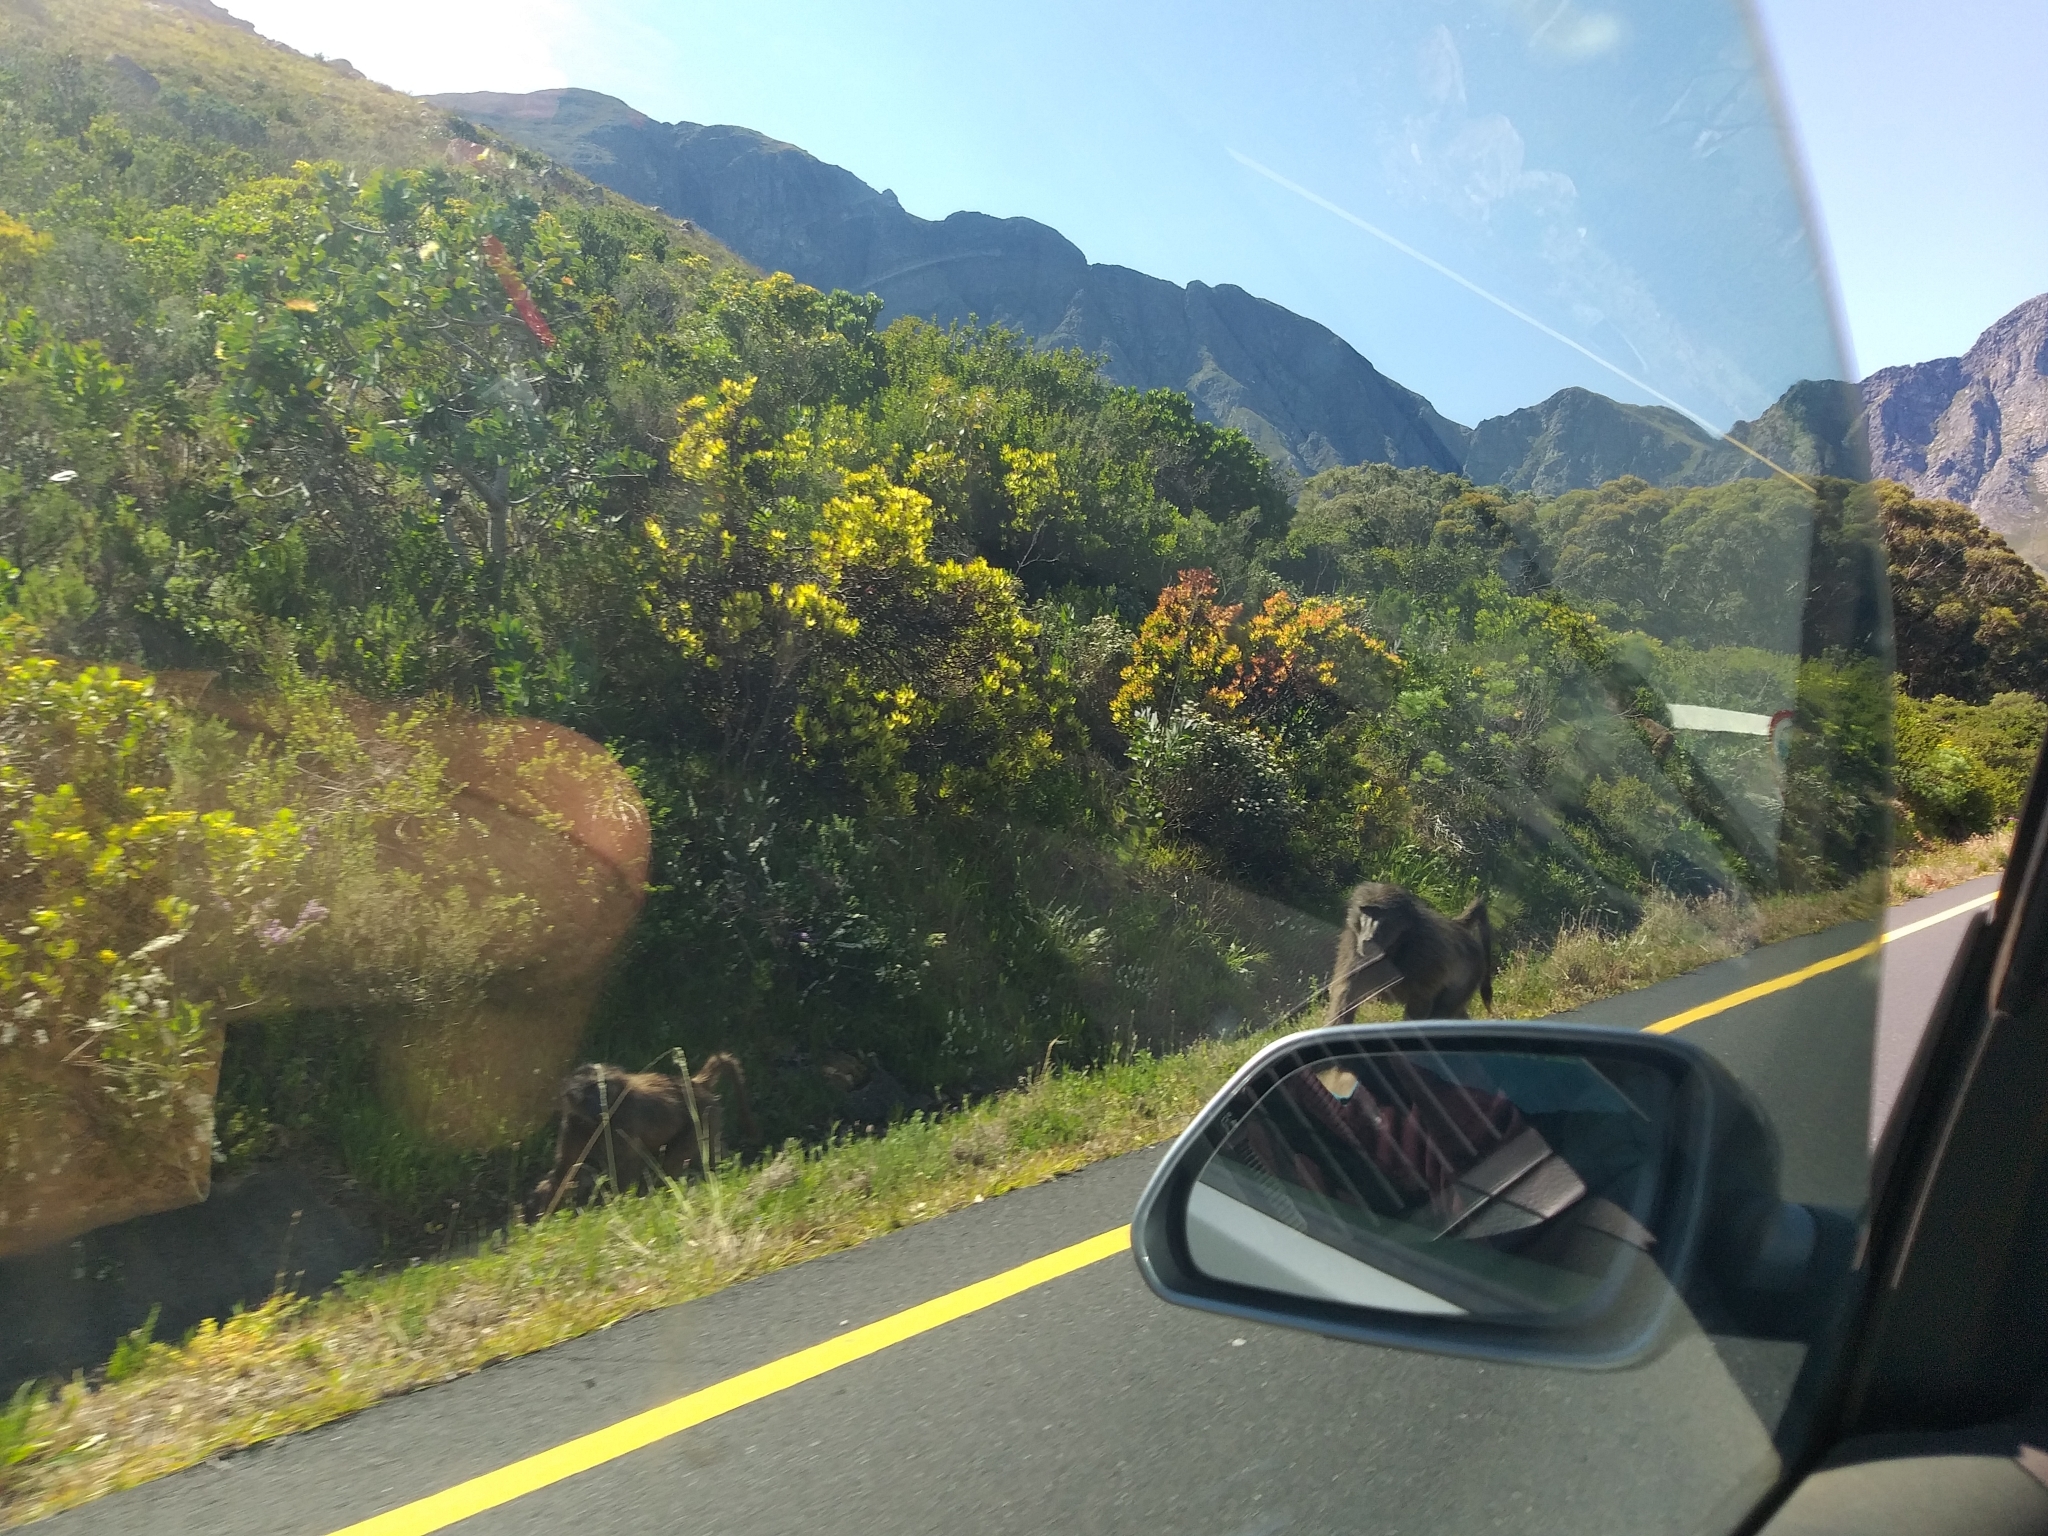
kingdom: Animalia
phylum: Chordata
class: Mammalia
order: Primates
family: Cercopithecidae
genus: Papio
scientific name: Papio ursinus
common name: Chacma baboon
